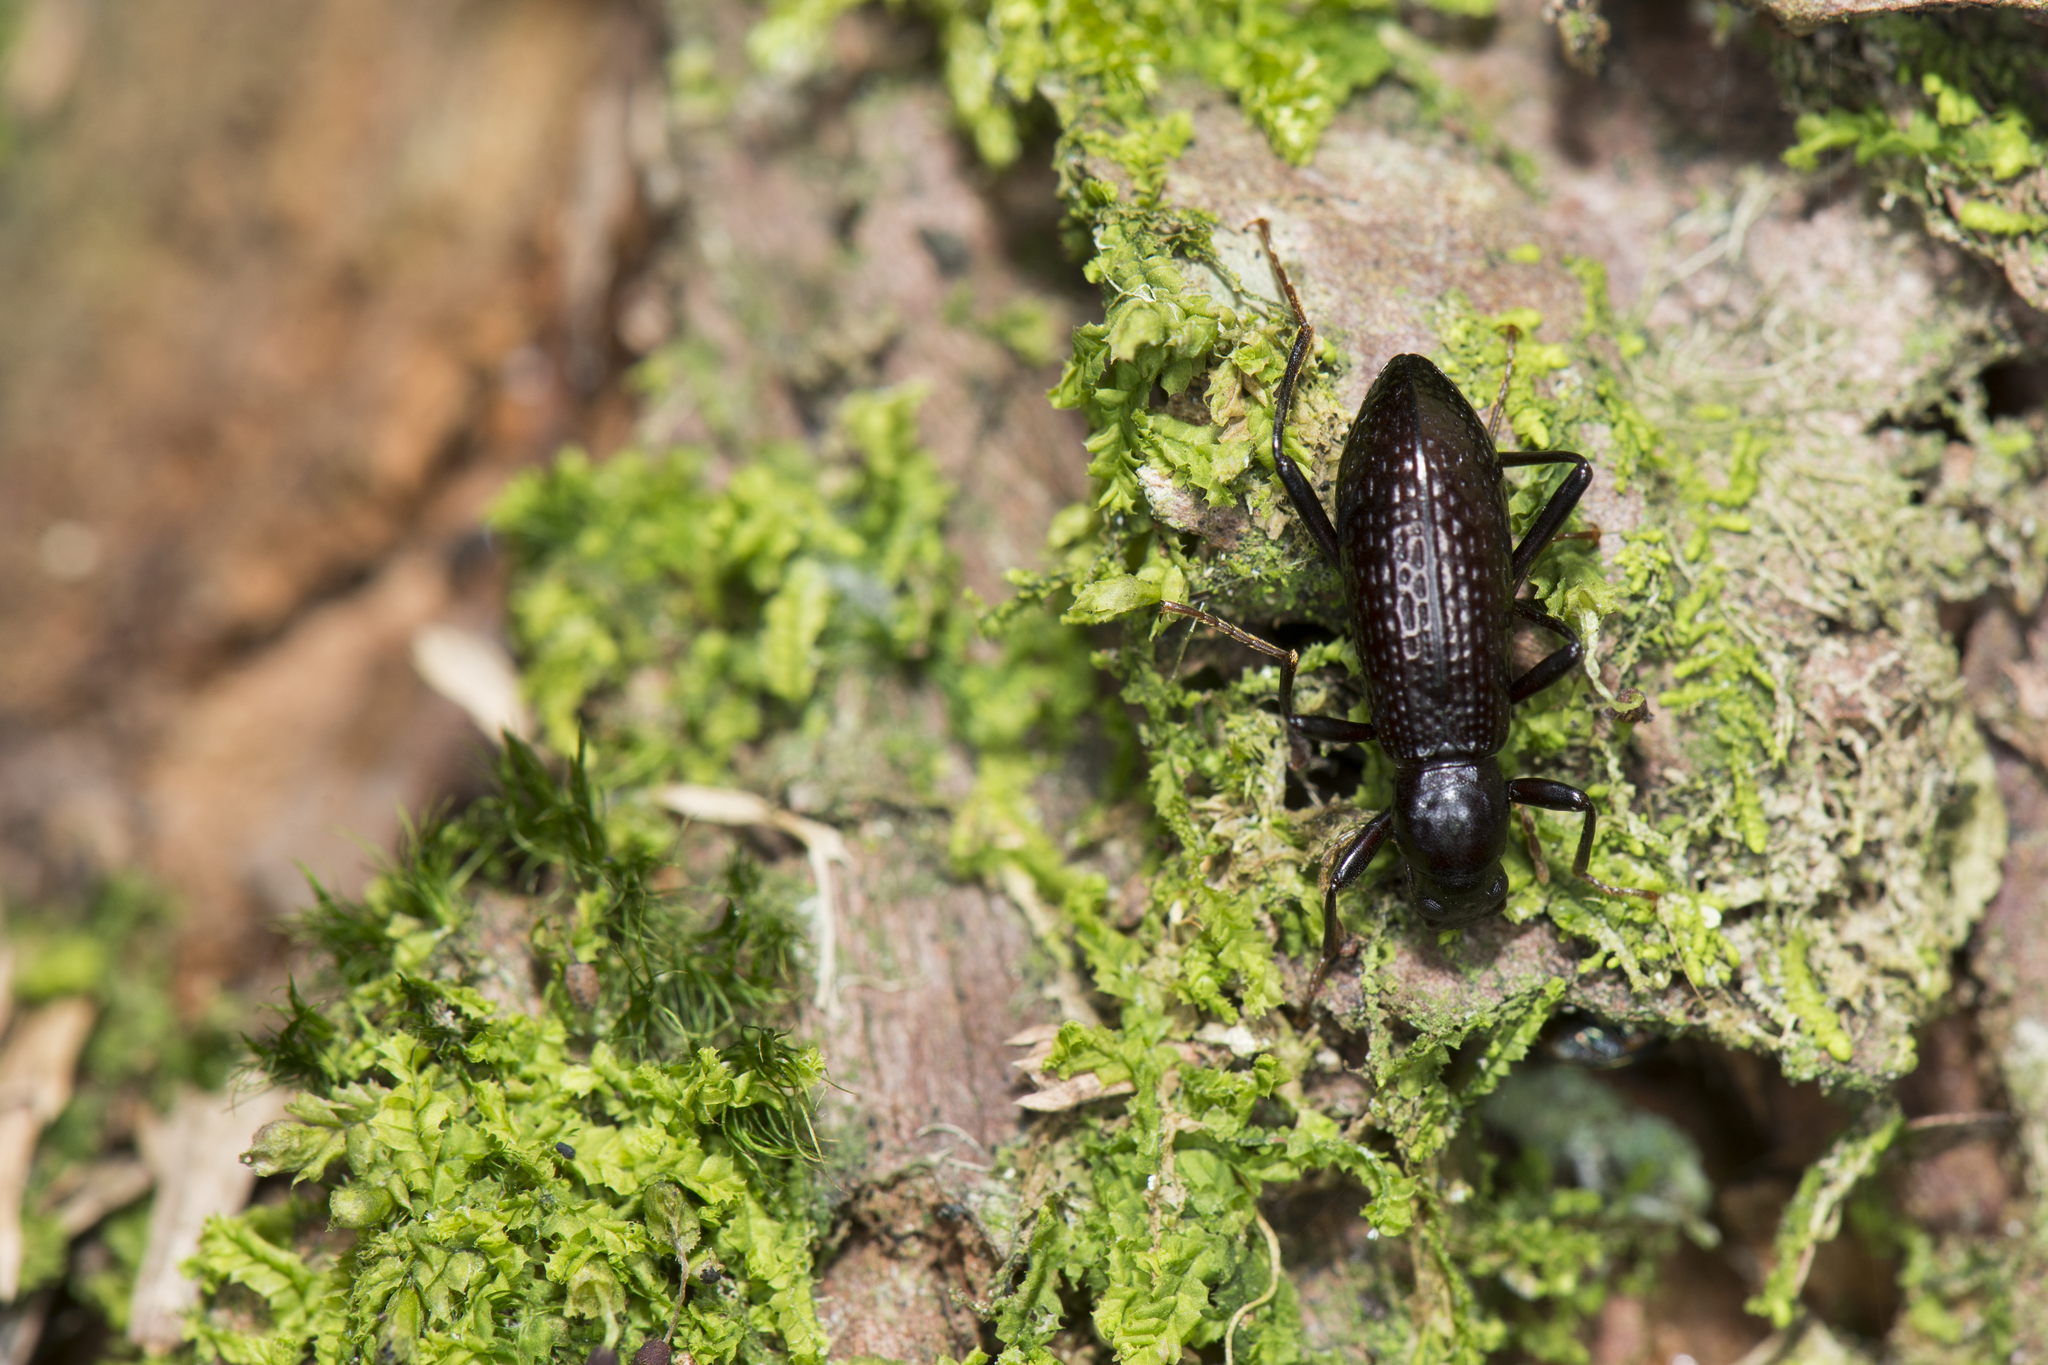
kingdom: Animalia
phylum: Arthropoda
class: Insecta
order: Coleoptera
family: Tenebrionidae
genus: Strongylium
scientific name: Strongylium clauda
